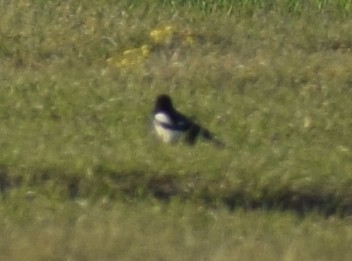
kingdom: Animalia
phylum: Chordata
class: Aves
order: Passeriformes
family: Corvidae
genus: Pica
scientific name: Pica pica
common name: Eurasian magpie
